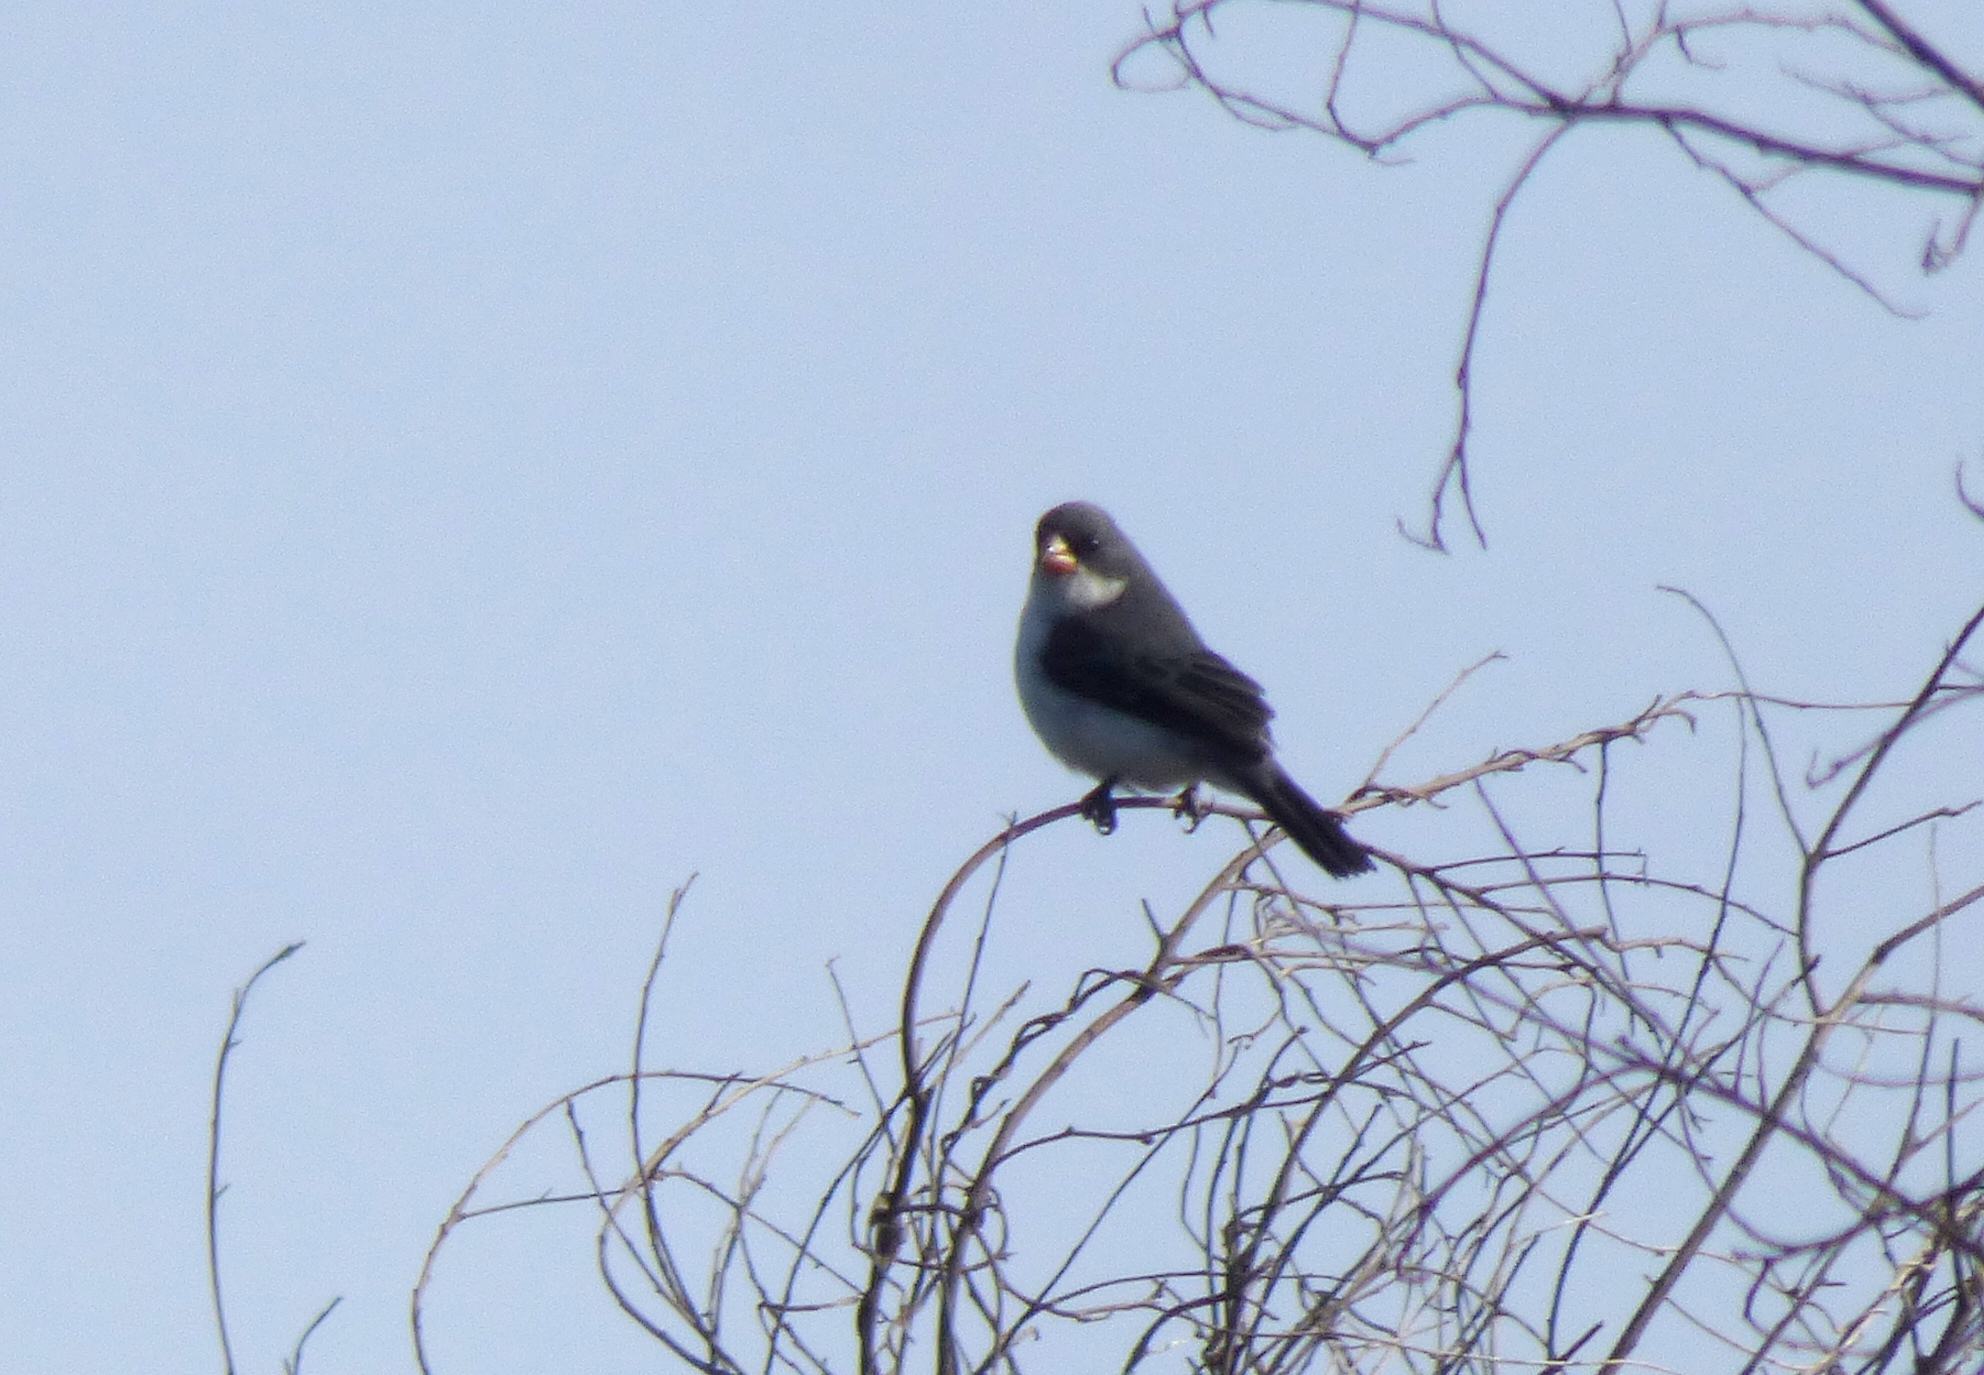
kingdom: Animalia
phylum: Chordata
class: Aves
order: Passeriformes
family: Thraupidae
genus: Sporophila
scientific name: Sporophila leucoptera
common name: White-bellied seedeater
